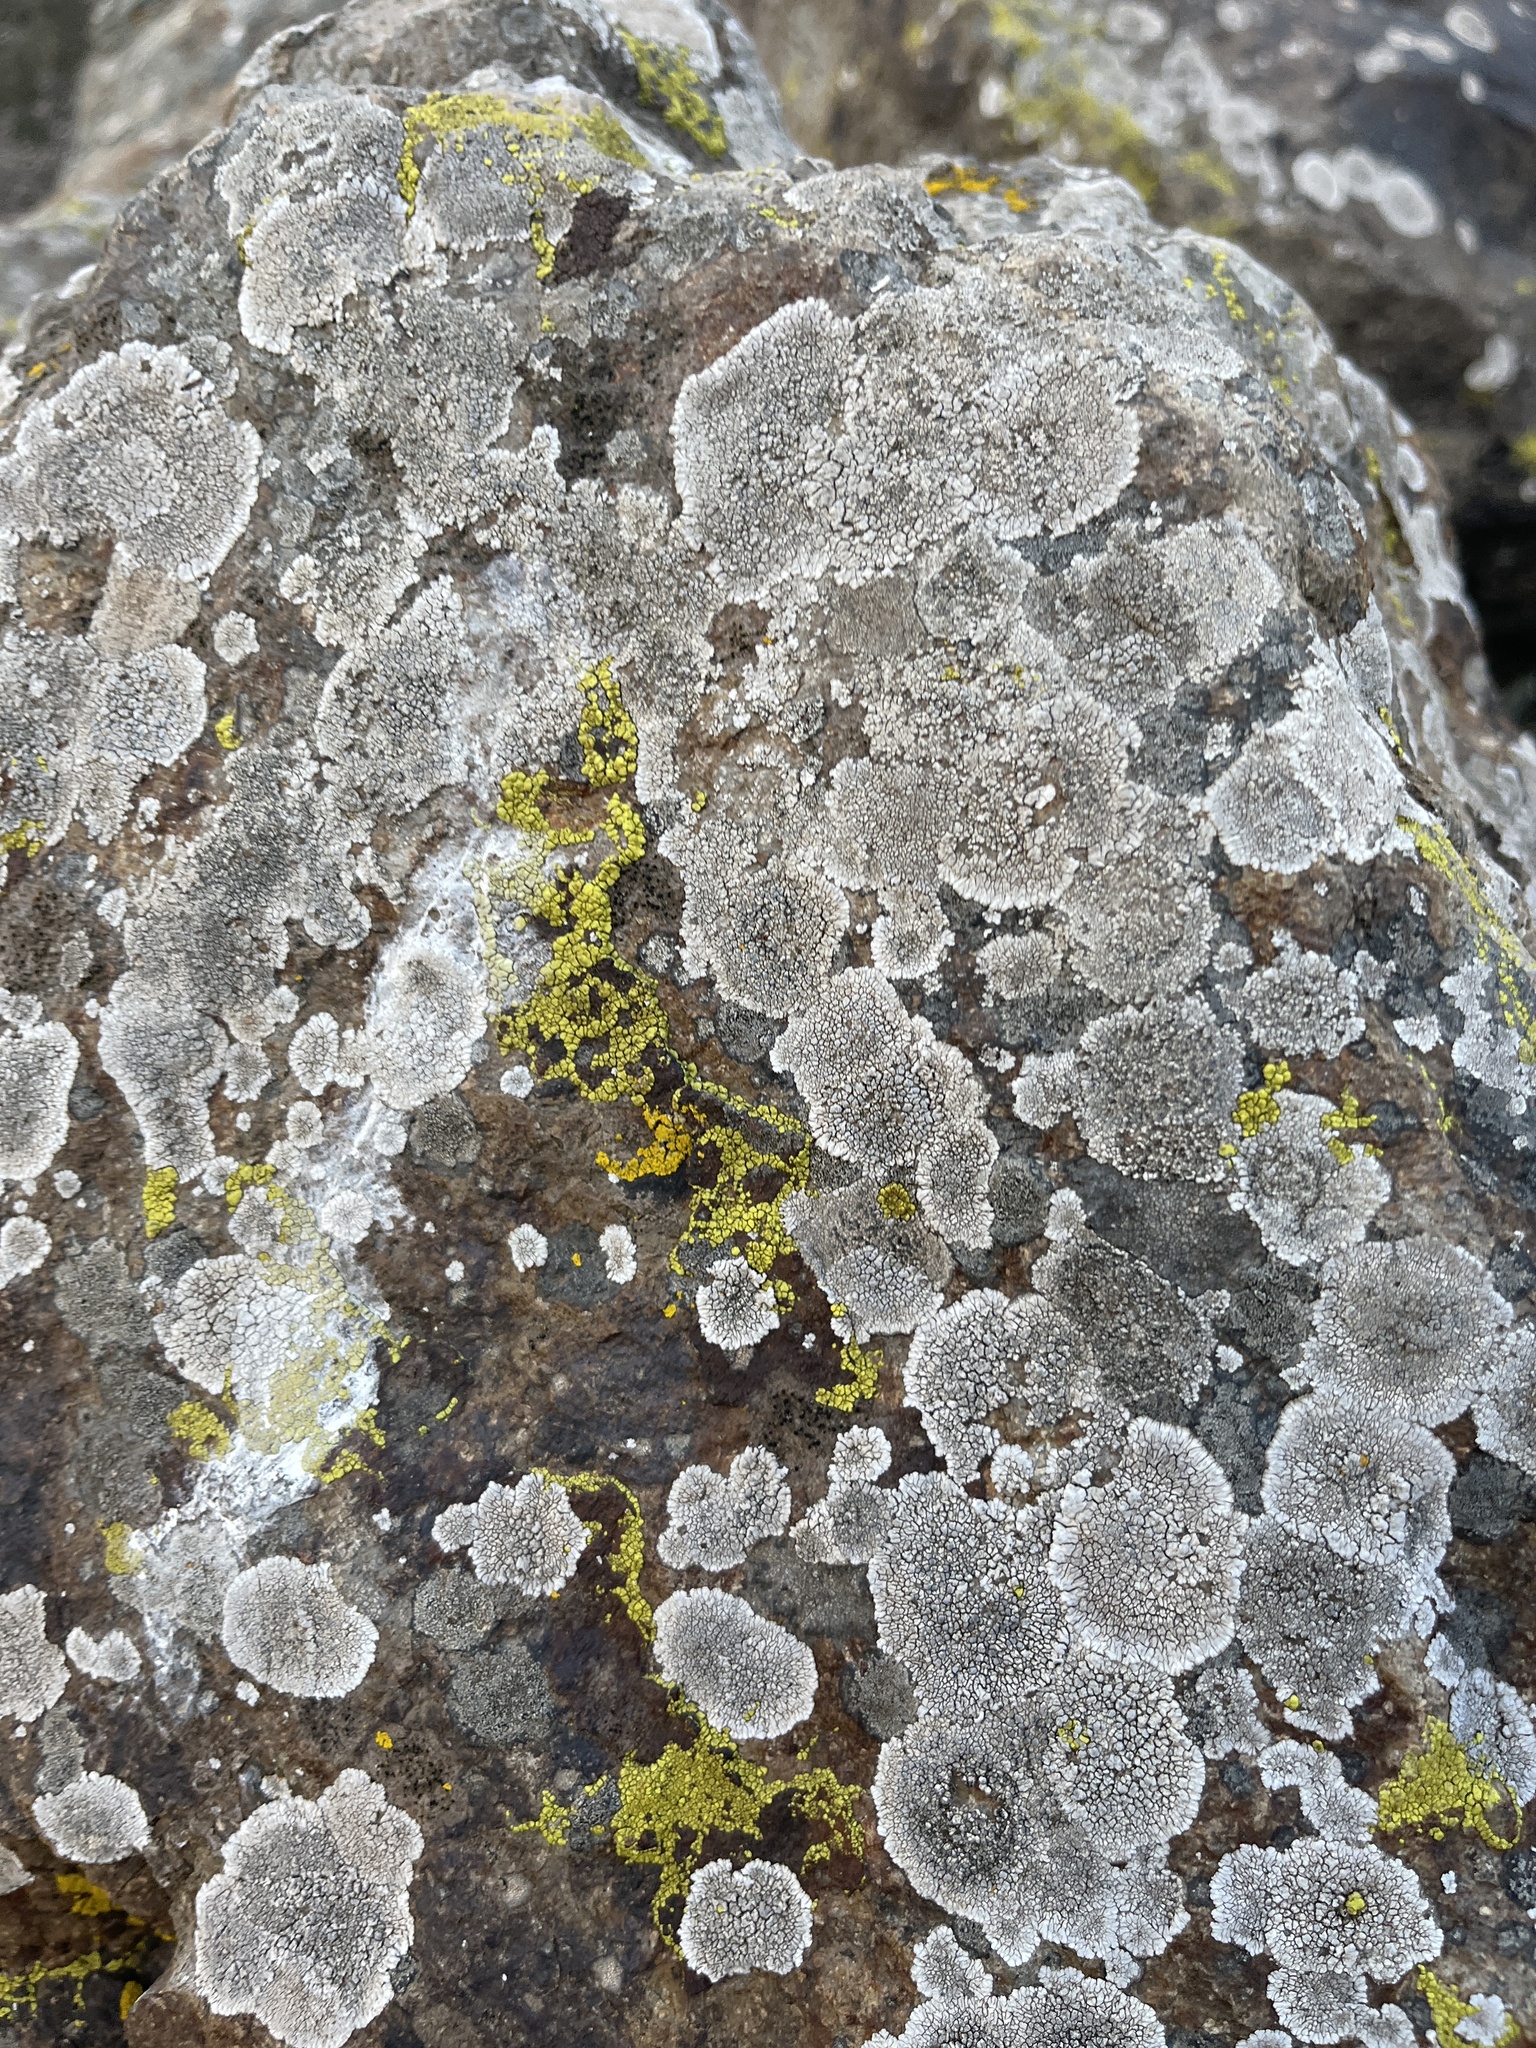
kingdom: Fungi
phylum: Ascomycota
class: Lecanoromycetes
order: Caliciales
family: Caliciaceae
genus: Dimelaena
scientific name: Dimelaena radiata
